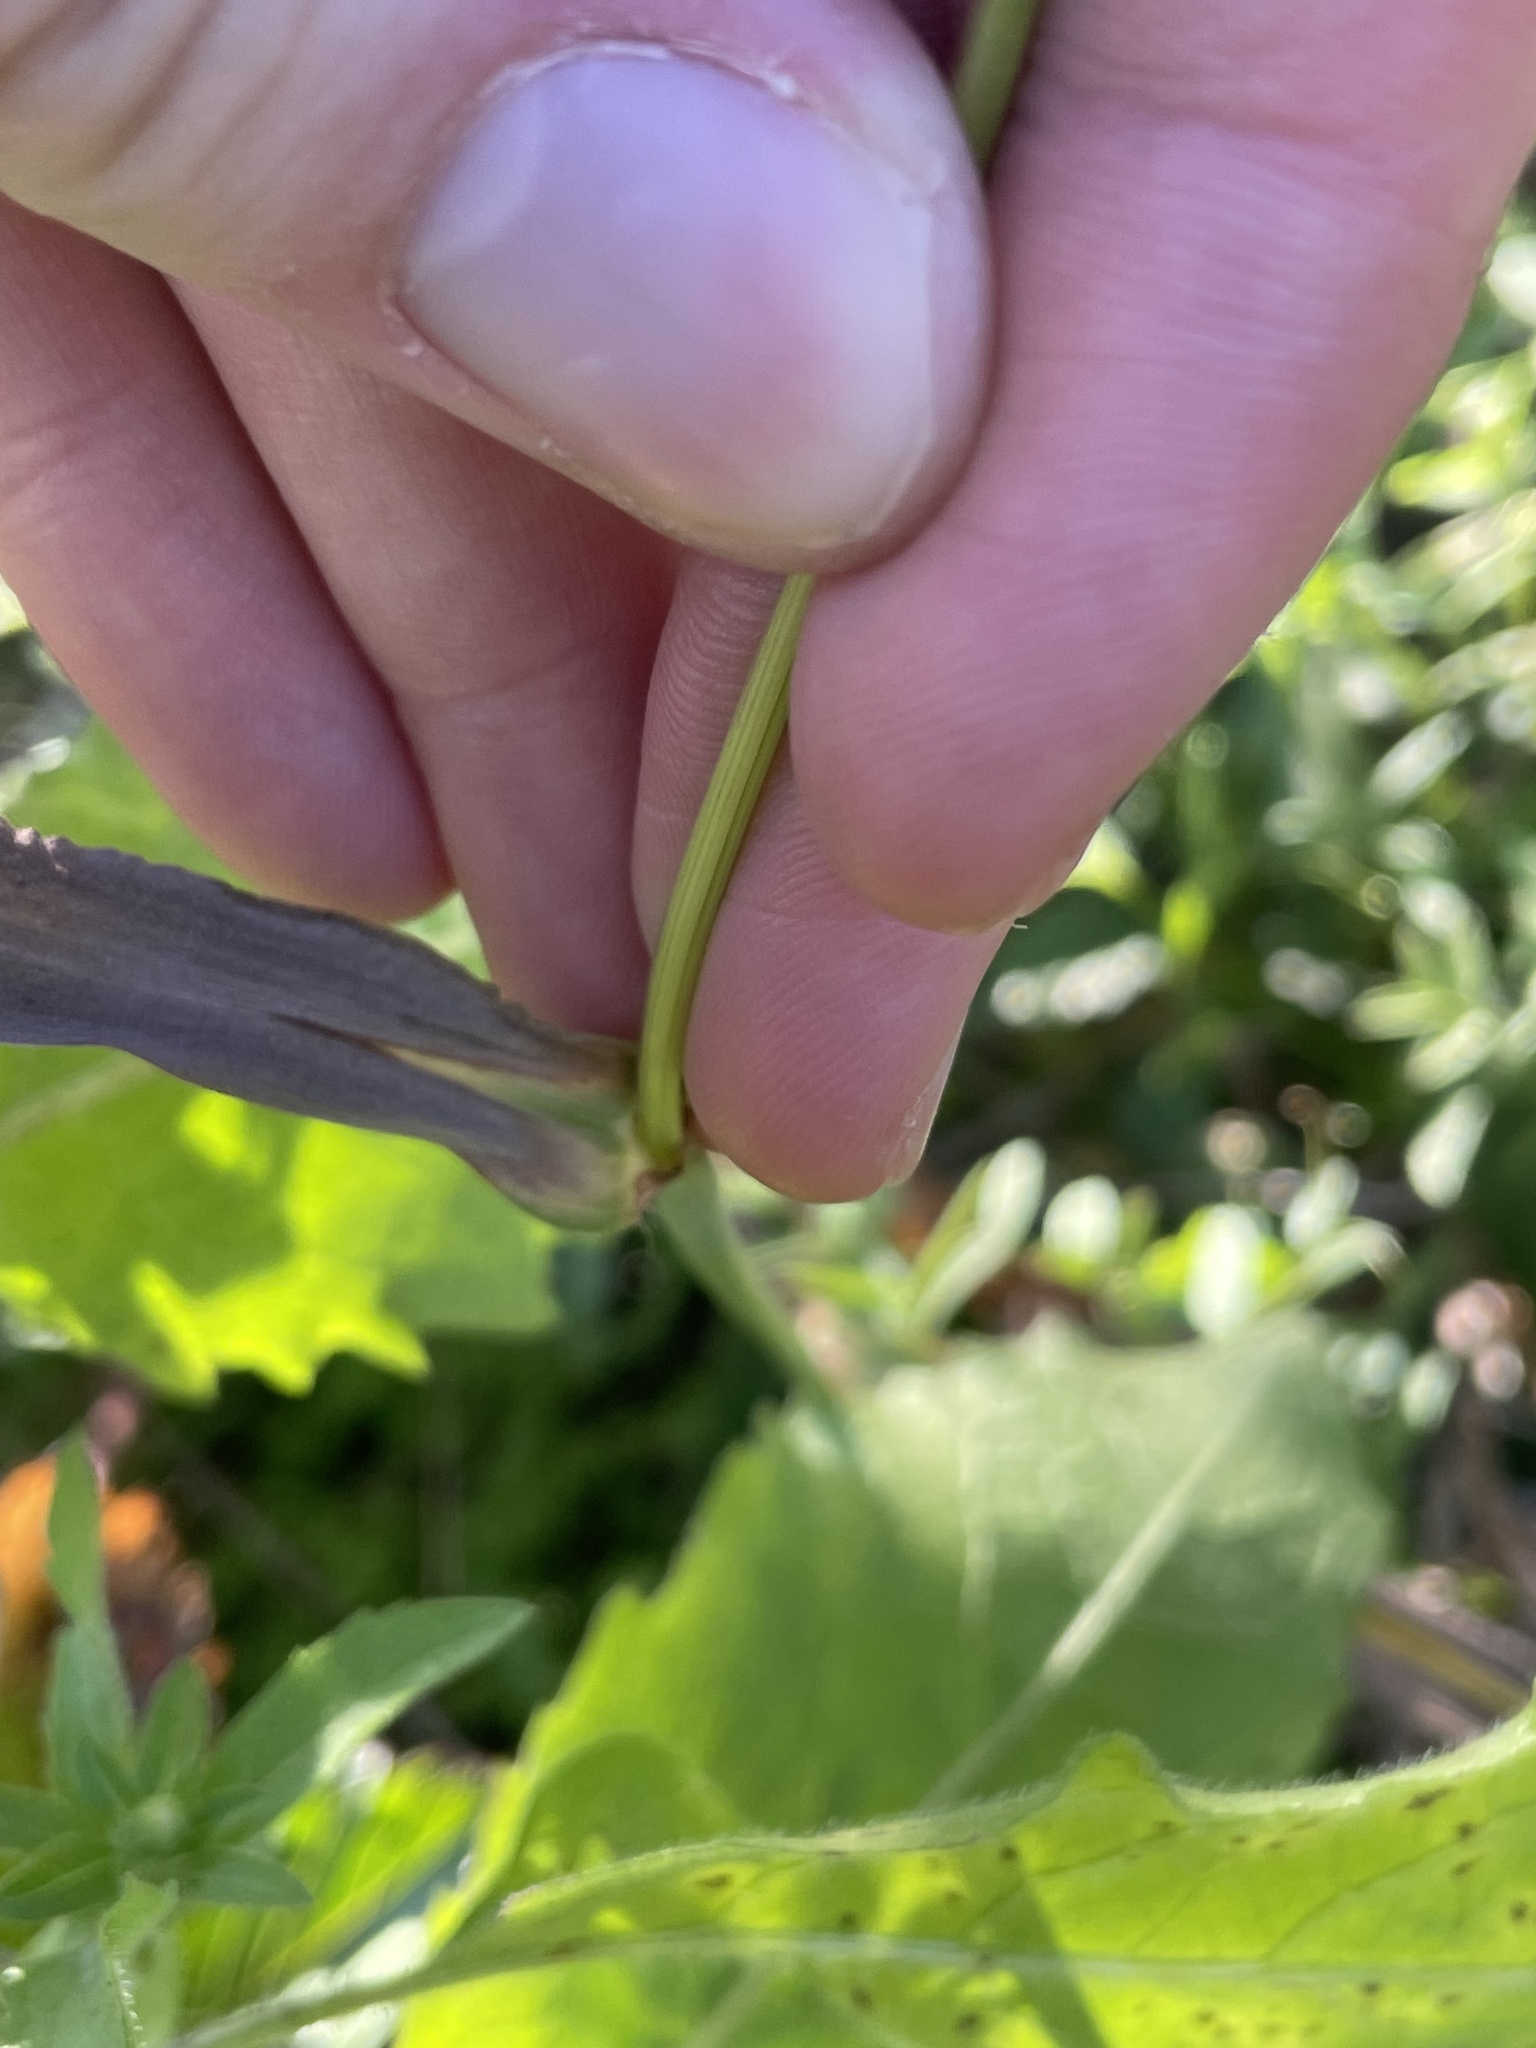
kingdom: Plantae
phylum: Tracheophyta
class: Liliopsida
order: Poales
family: Poaceae
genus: Paspalum
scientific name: Paspalum pubiflorum
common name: Hairy-seed paspalum
